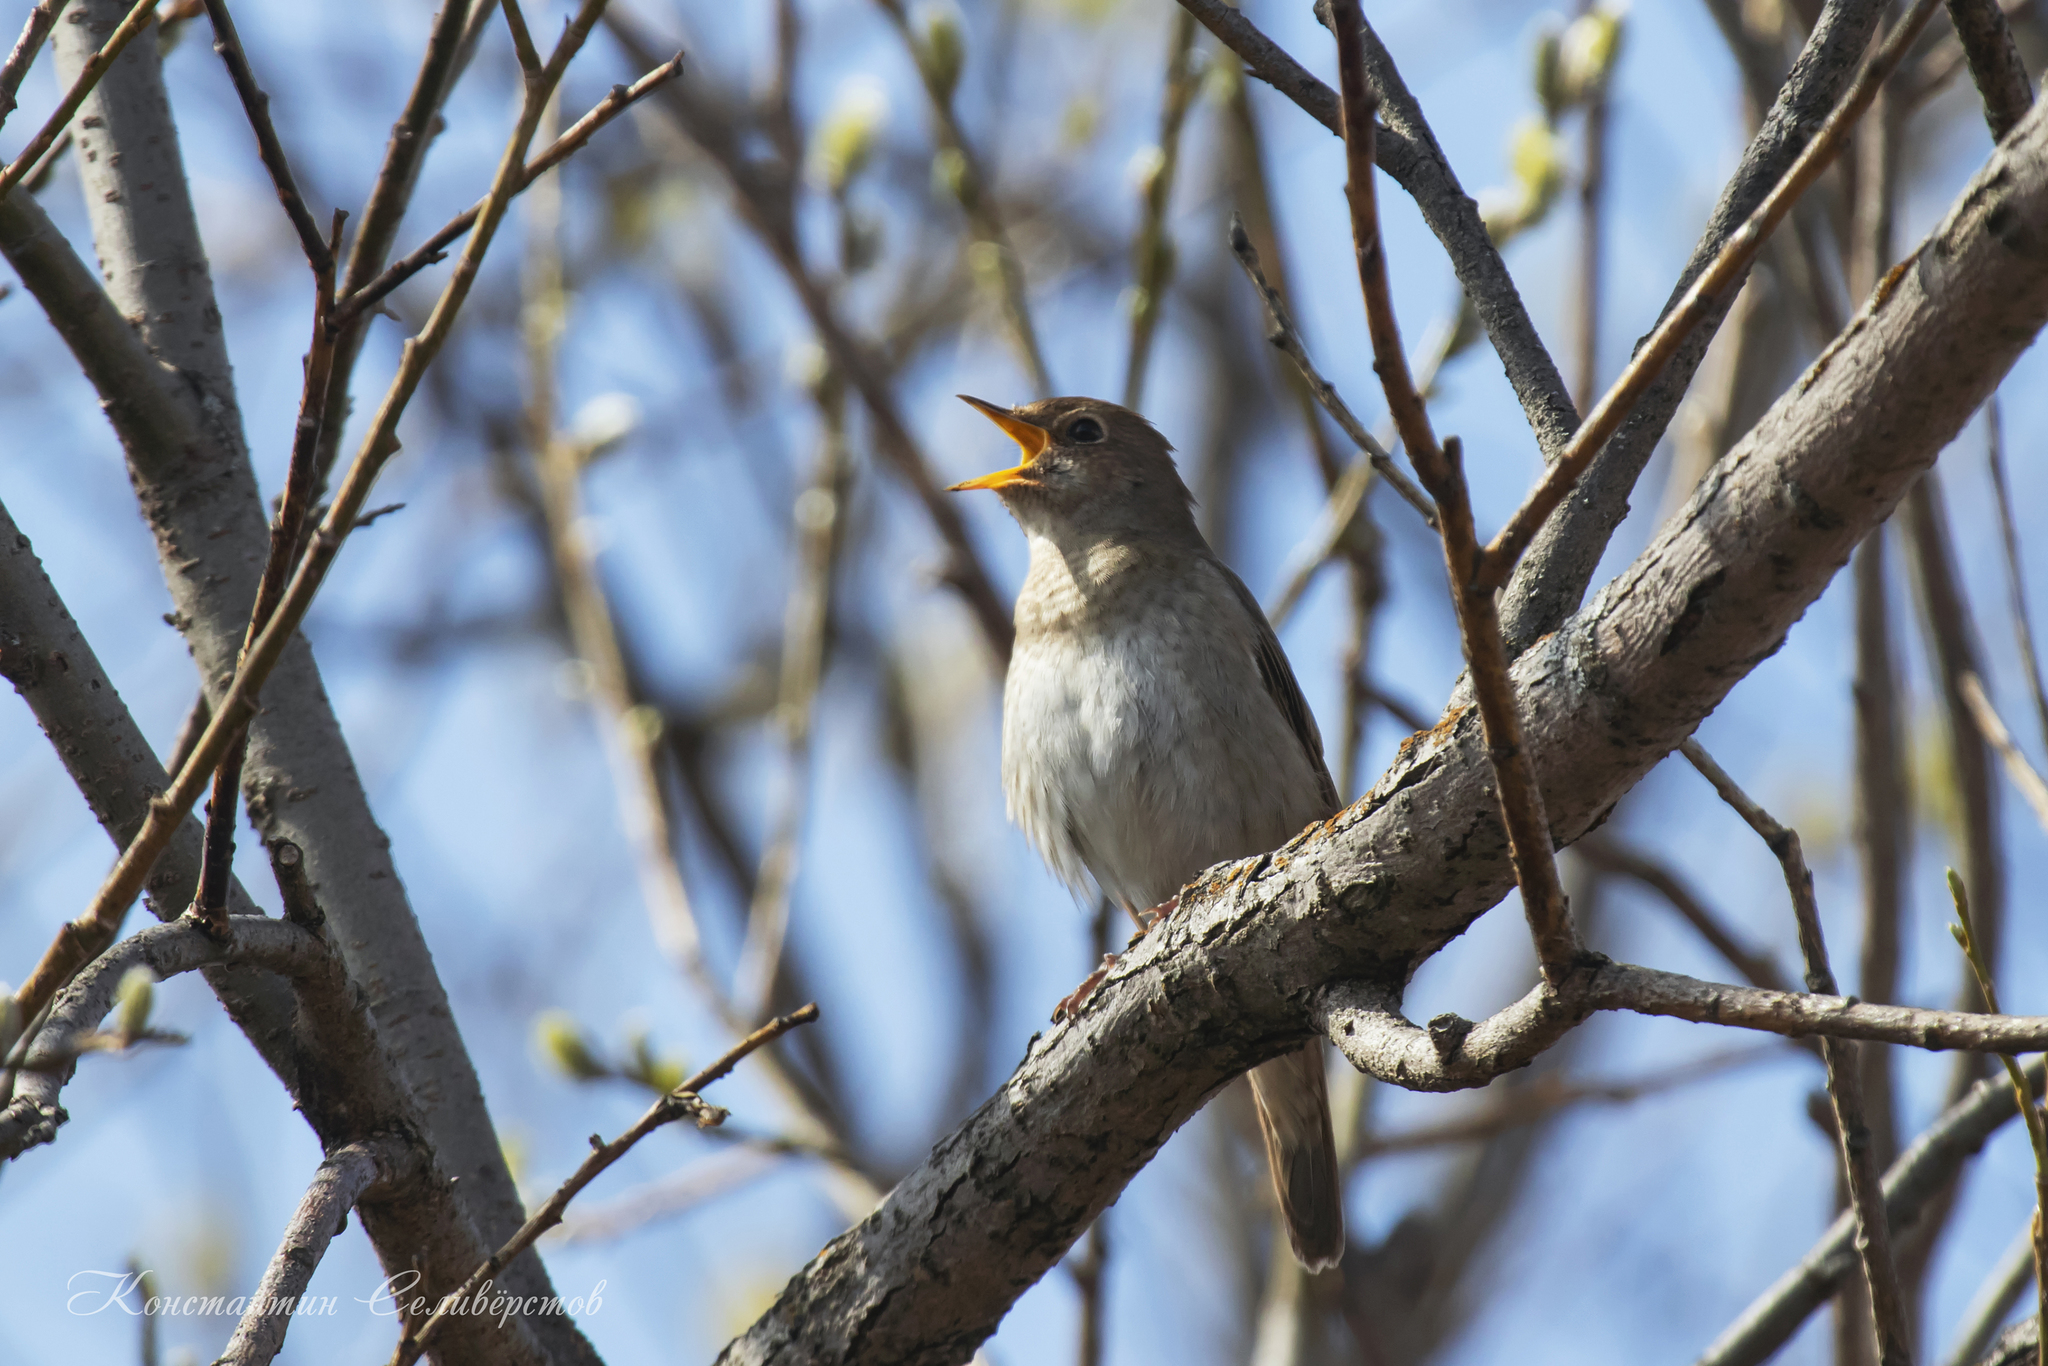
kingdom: Animalia
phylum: Chordata
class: Aves
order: Passeriformes
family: Muscicapidae
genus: Luscinia
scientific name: Luscinia luscinia
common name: Thrush nightingale
